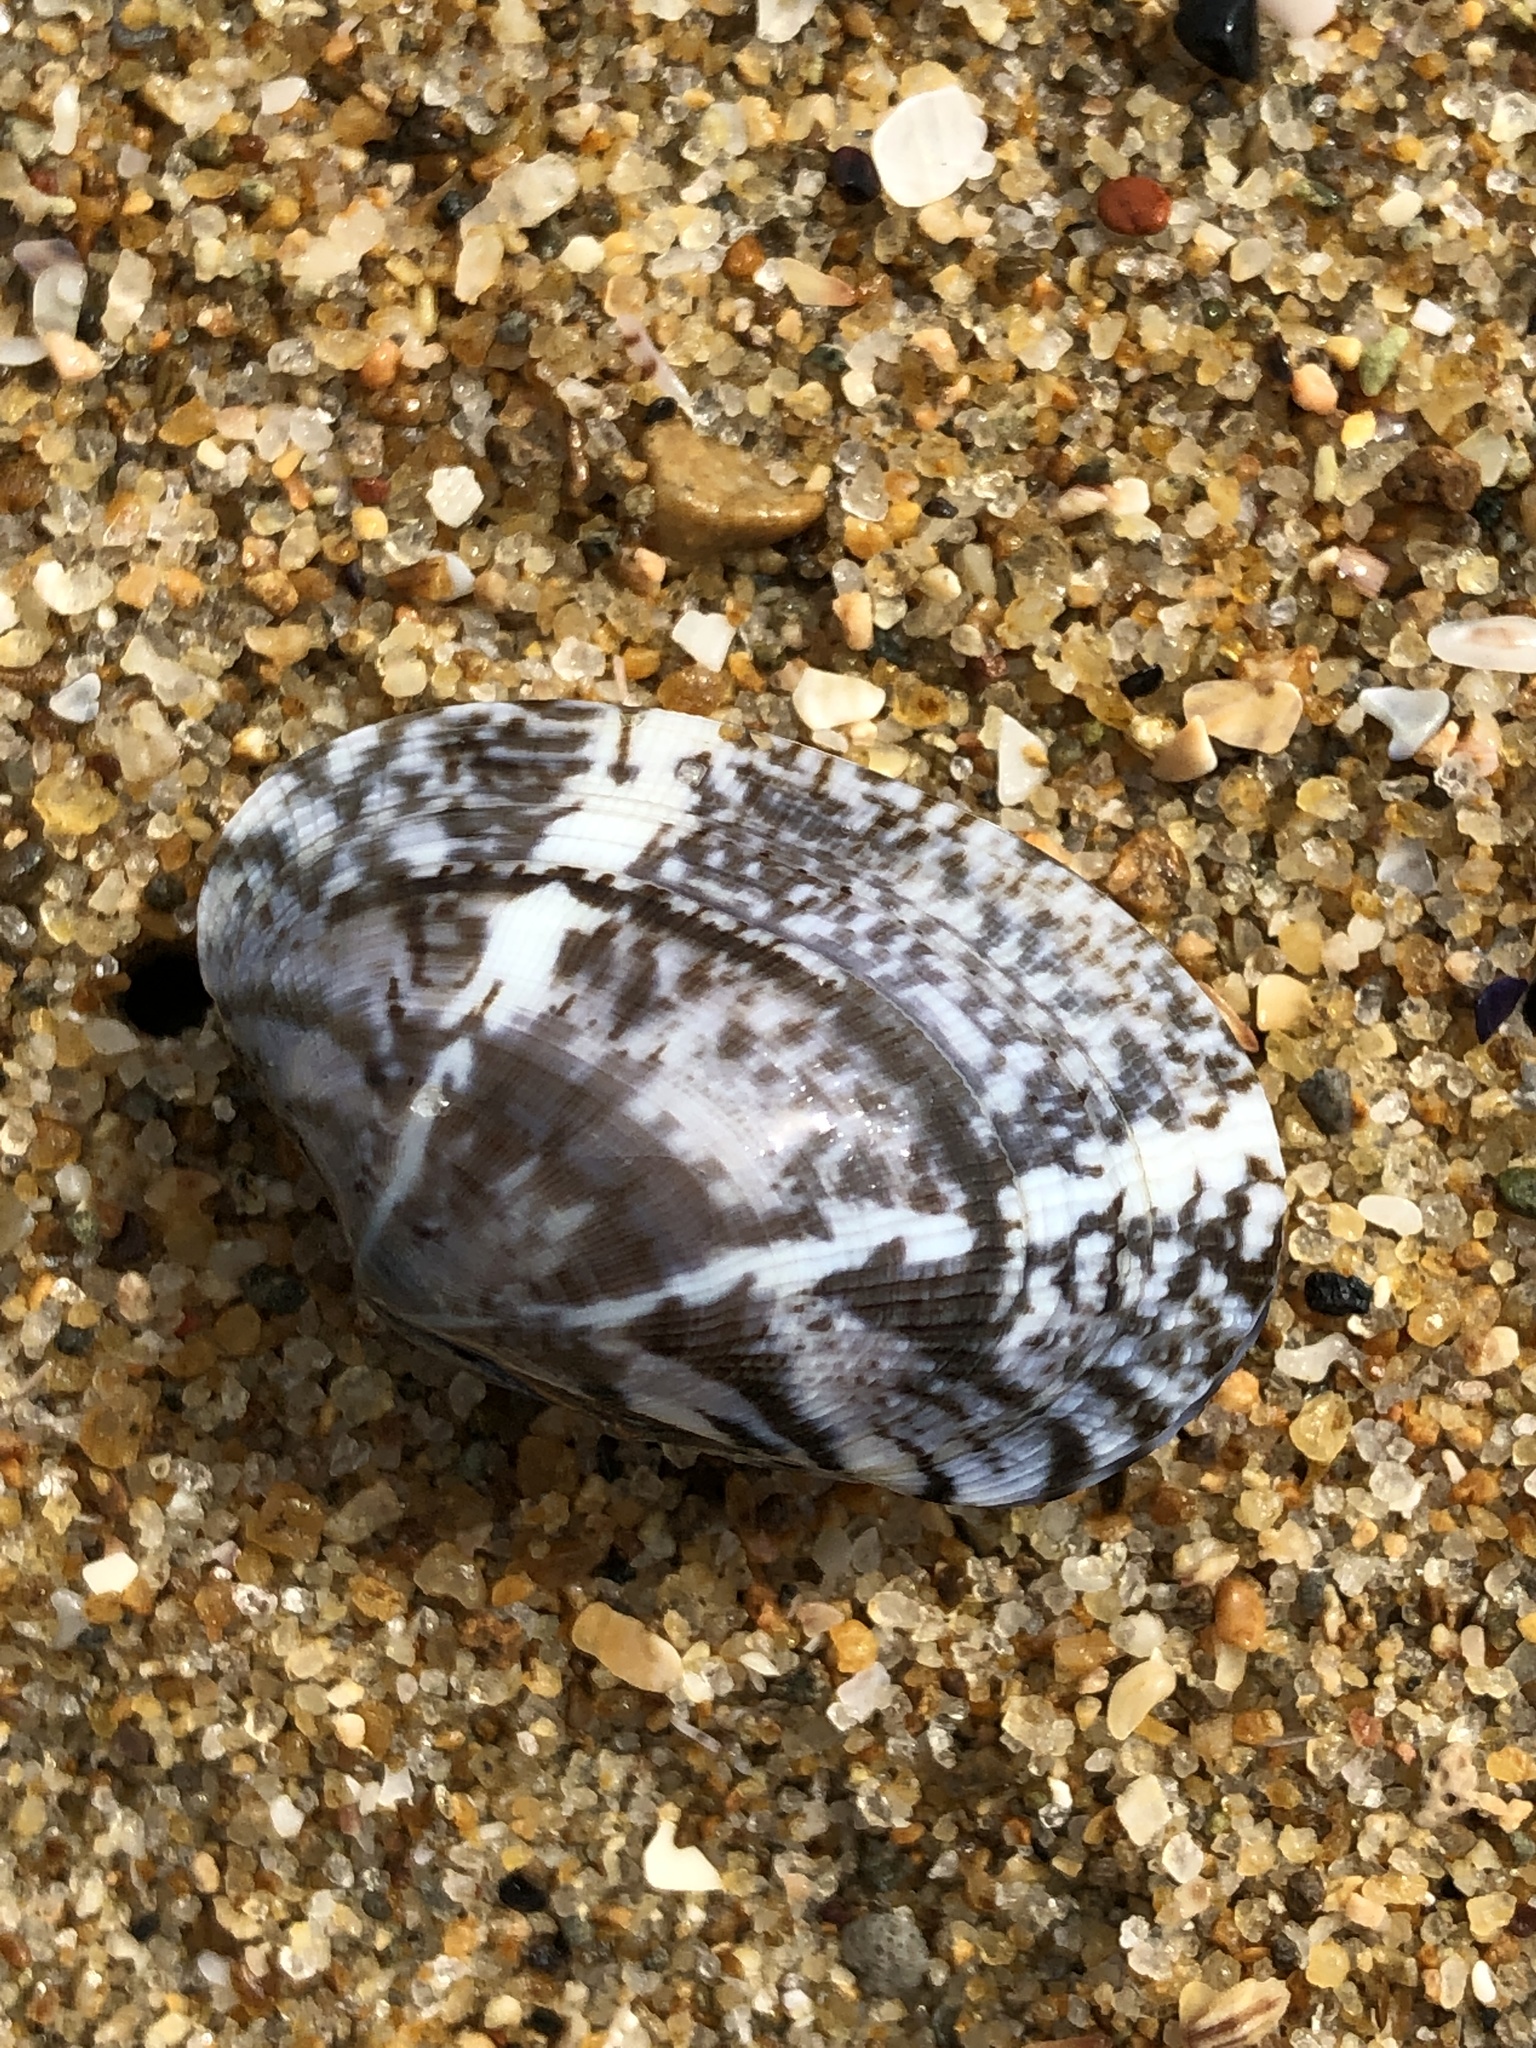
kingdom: Animalia
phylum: Mollusca
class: Bivalvia
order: Venerida
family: Veneridae
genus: Ruditapes
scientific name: Ruditapes philippinarum
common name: Manila clam
